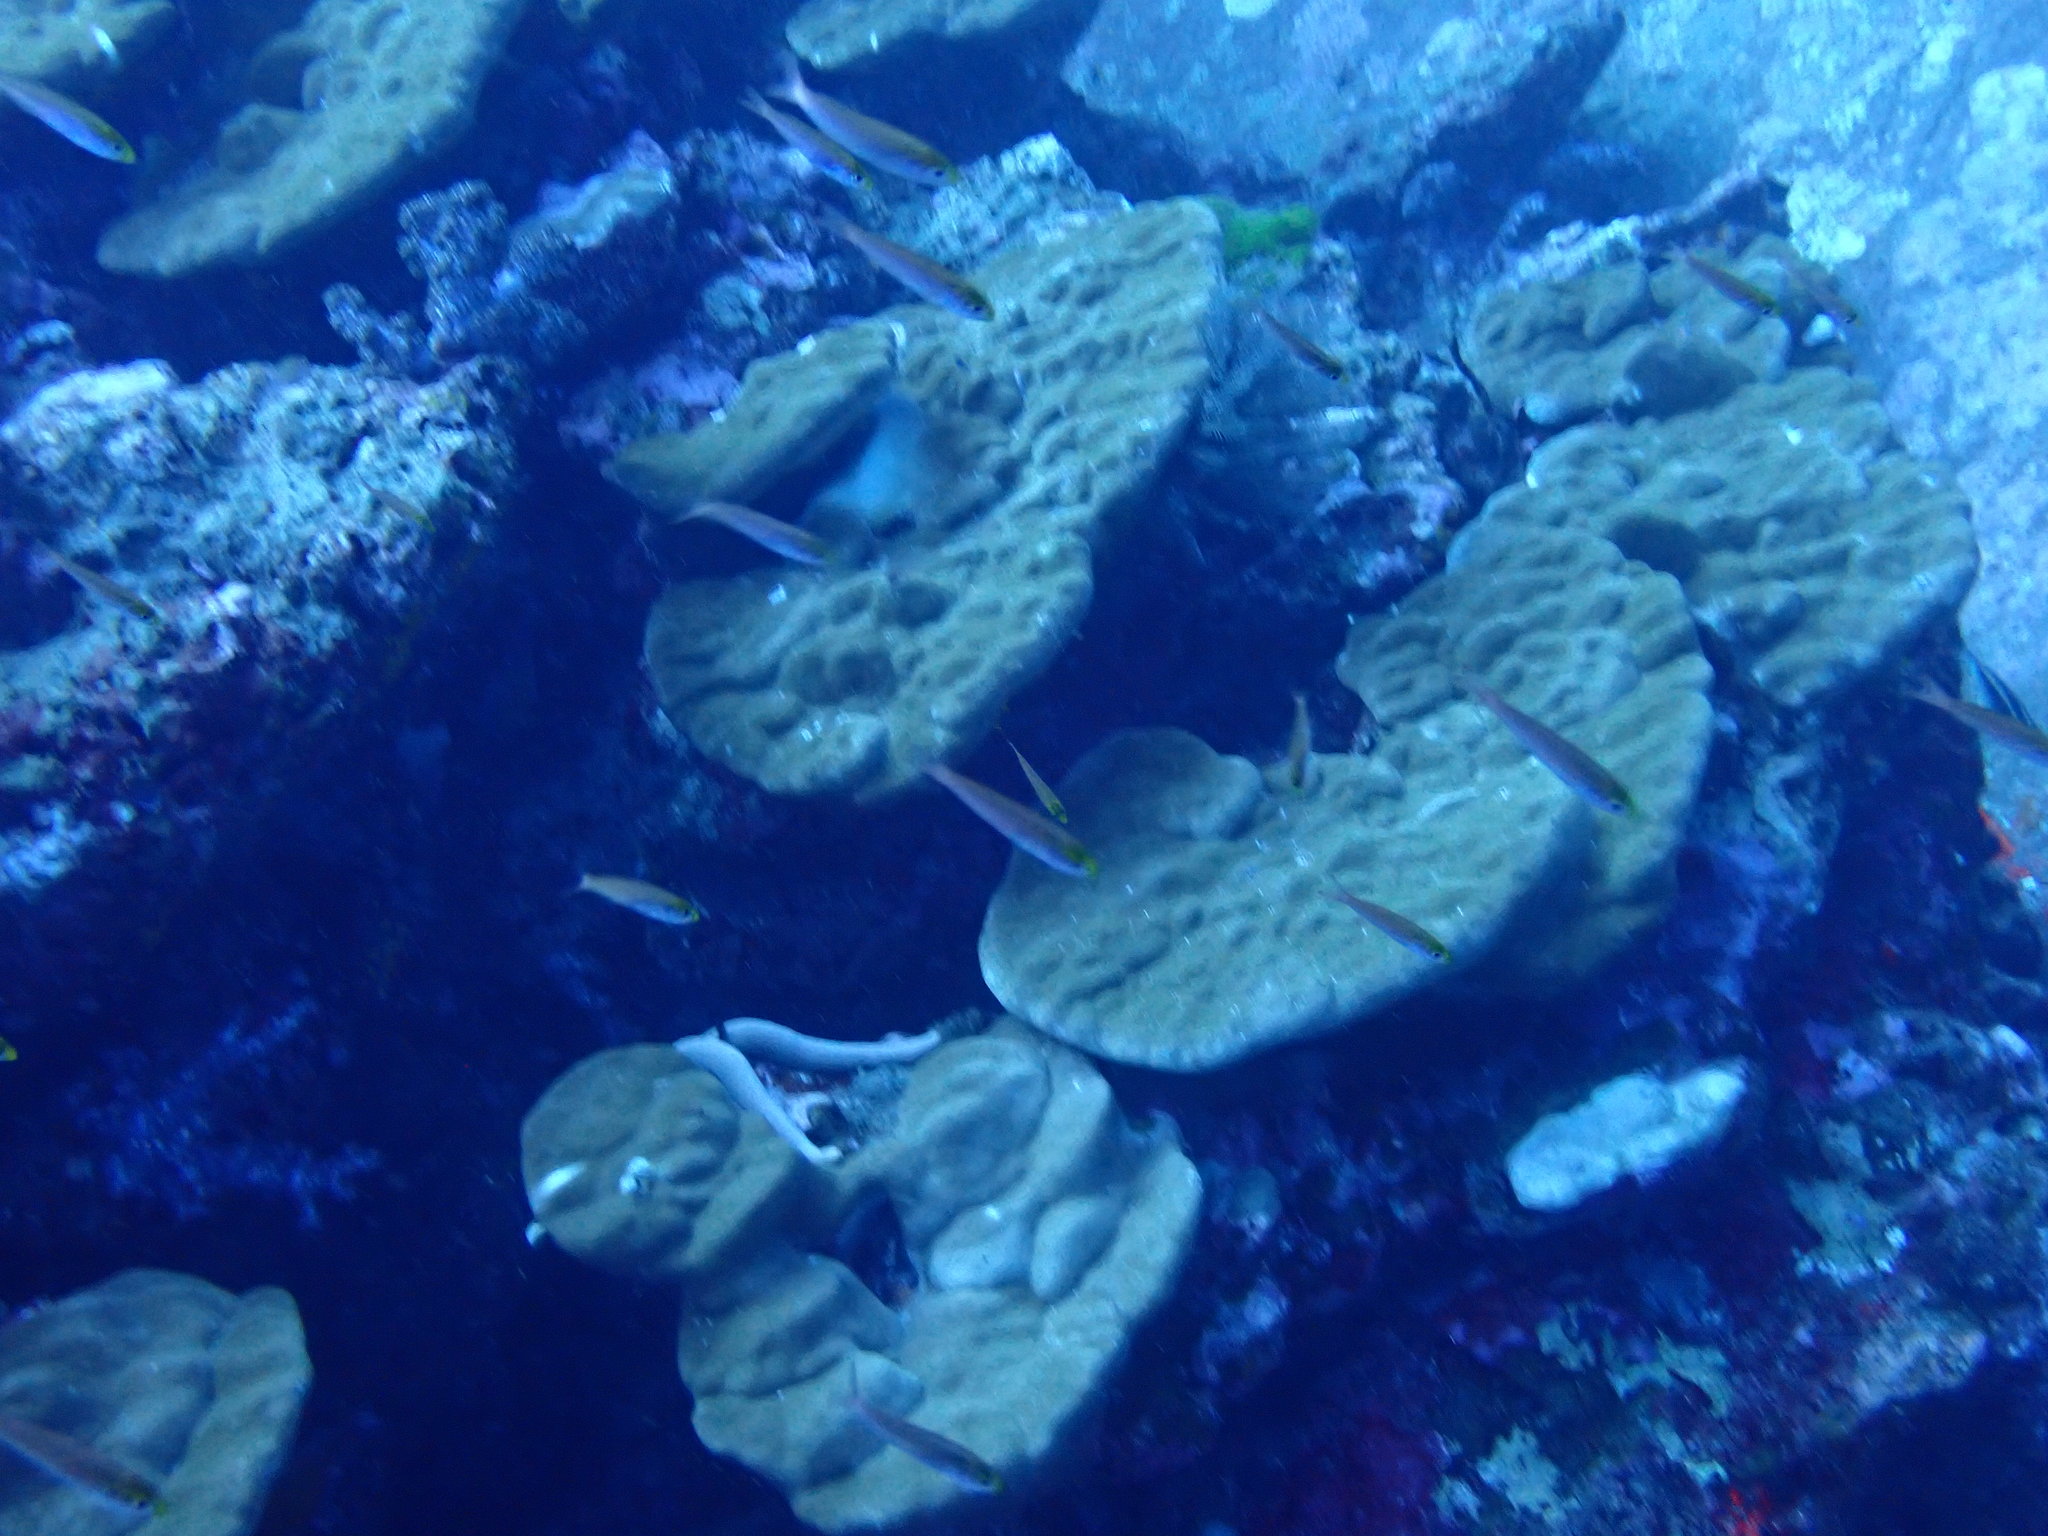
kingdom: Animalia
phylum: Chordata
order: Perciformes
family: Caesionidae
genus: Pterocaesio
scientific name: Pterocaesio pisang
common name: Banana fusilier
